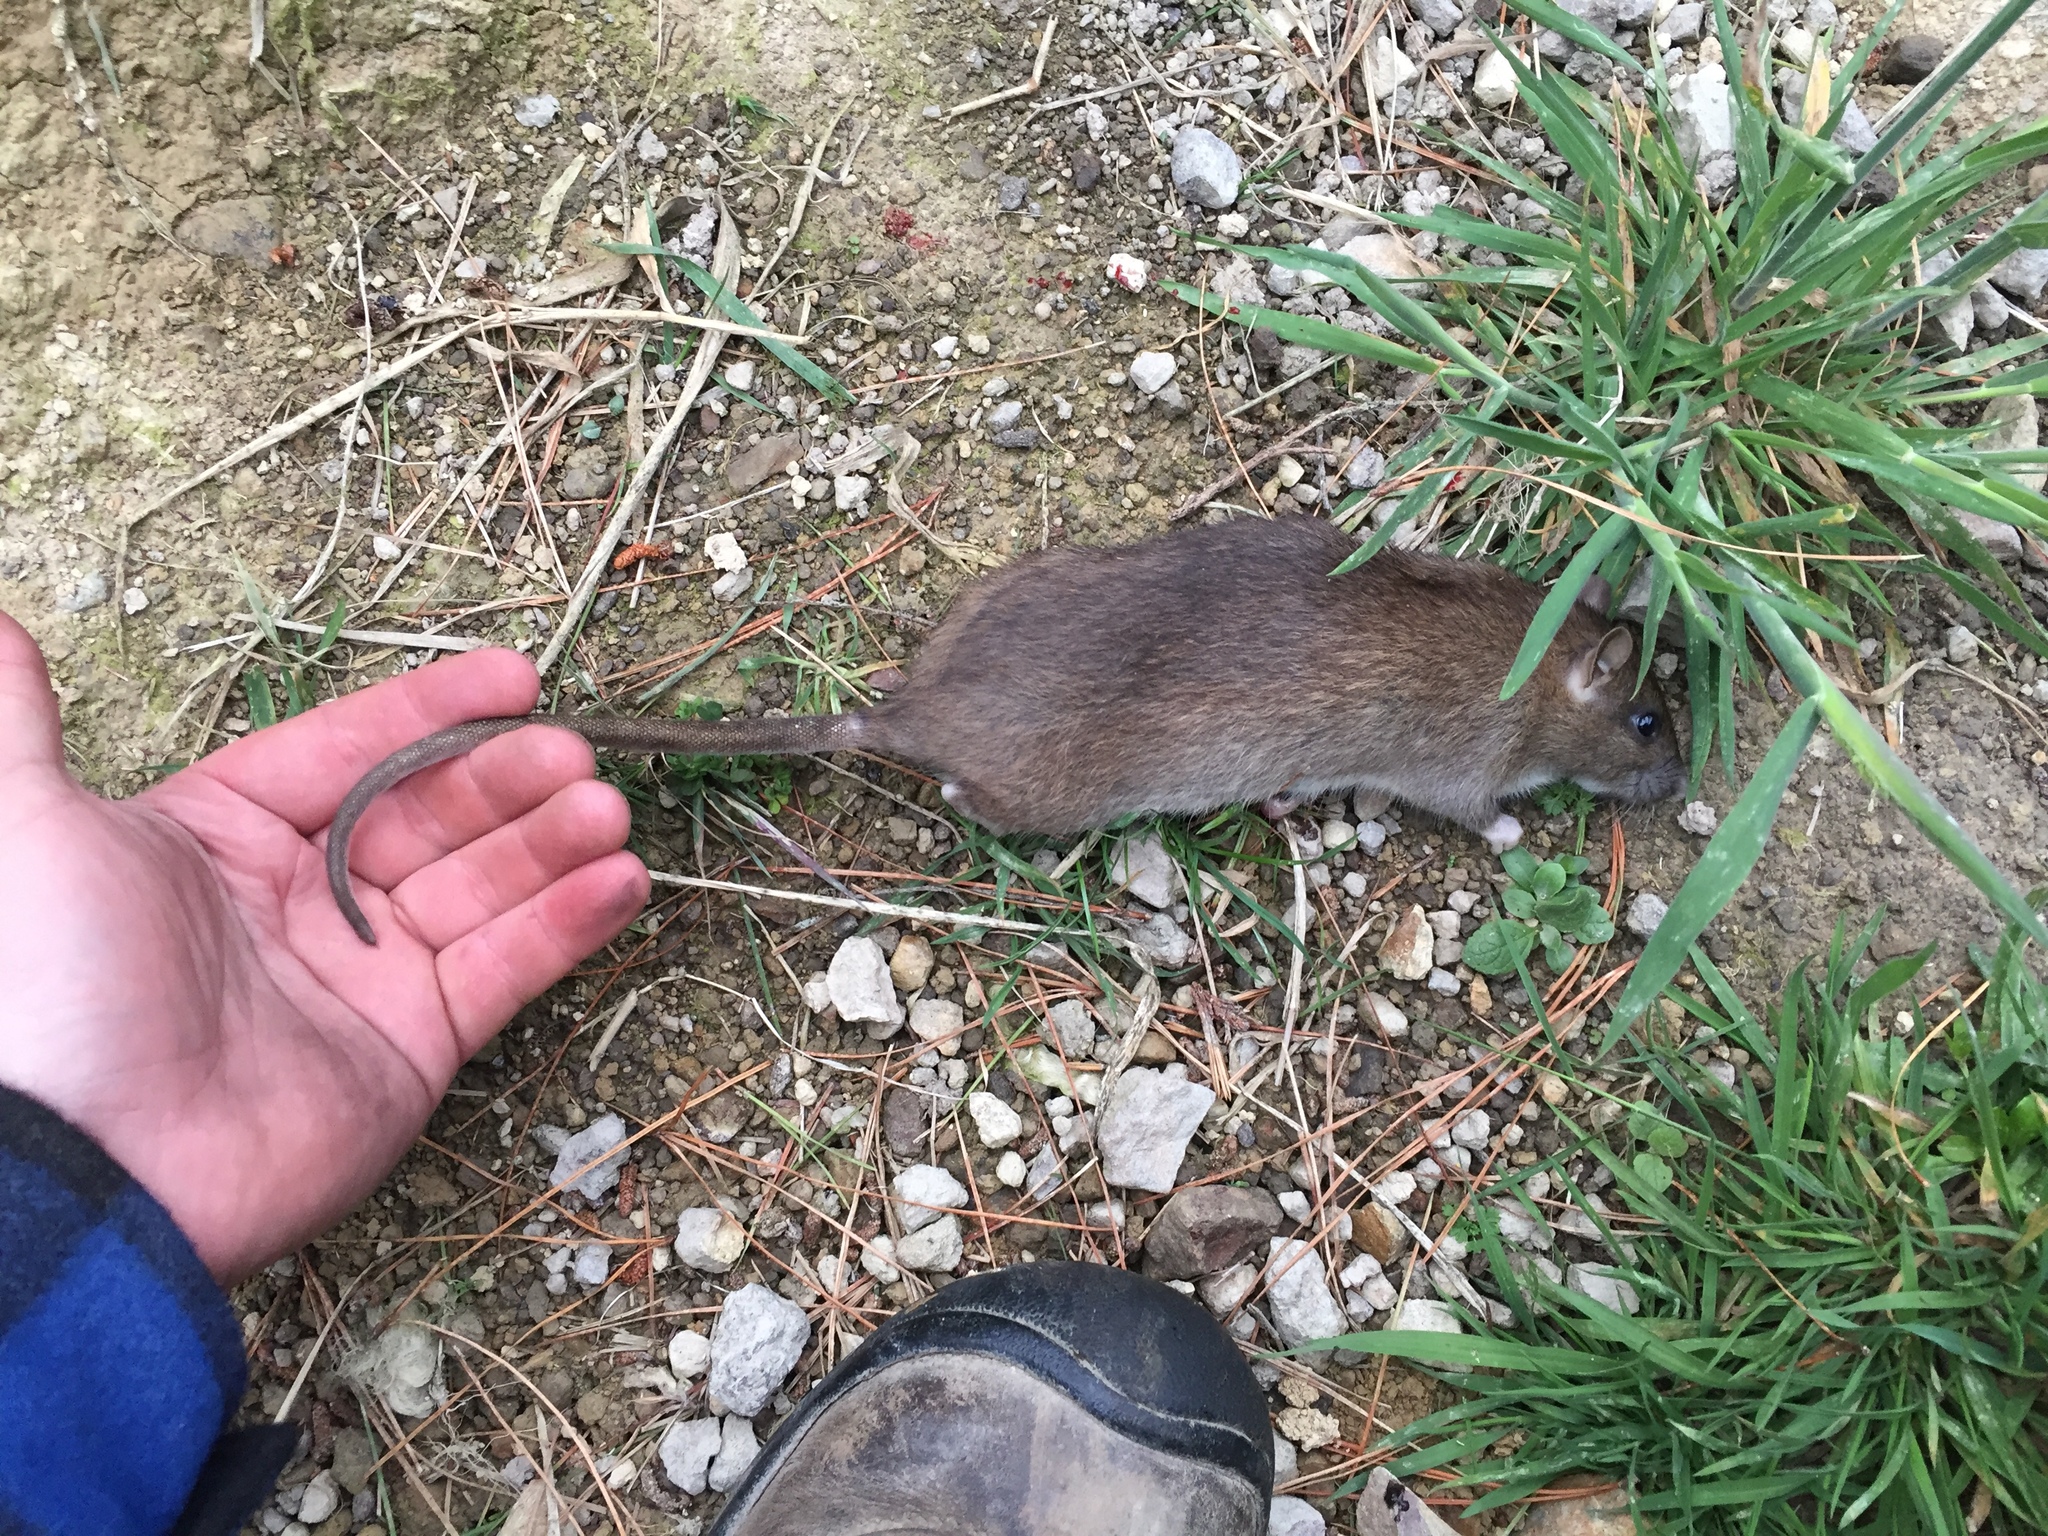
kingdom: Animalia
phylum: Chordata
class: Mammalia
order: Rodentia
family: Muridae
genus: Rattus
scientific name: Rattus norvegicus
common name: Brown rat
